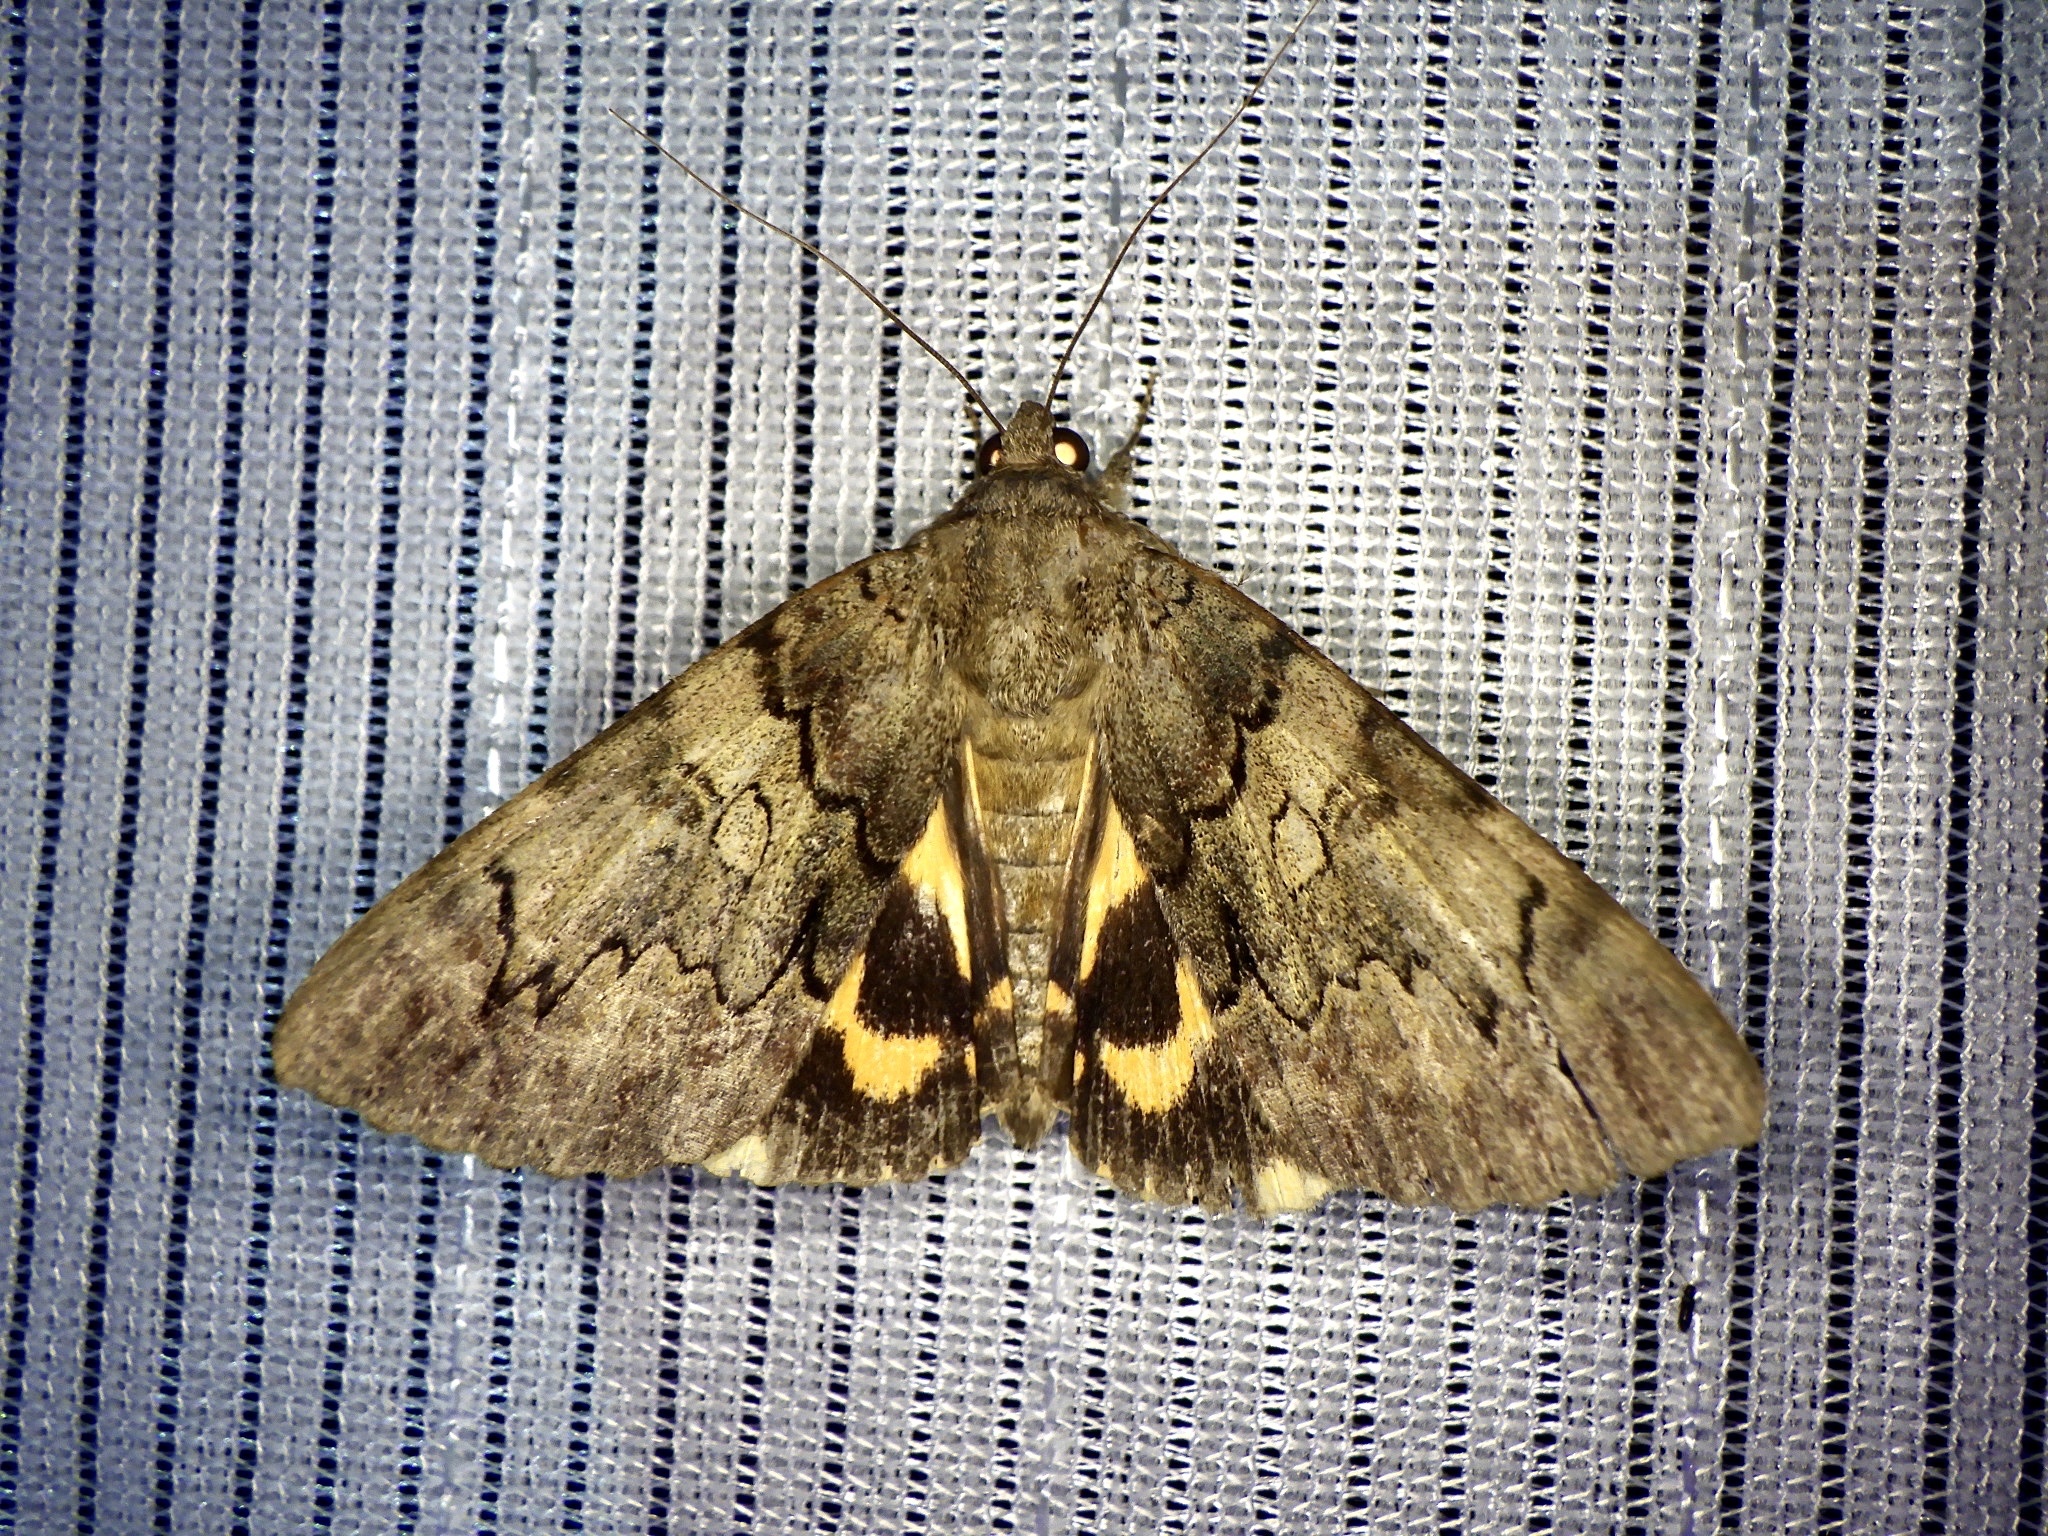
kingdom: Animalia
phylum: Arthropoda
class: Insecta
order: Lepidoptera
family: Erebidae
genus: Catocala
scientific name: Catocala patala
